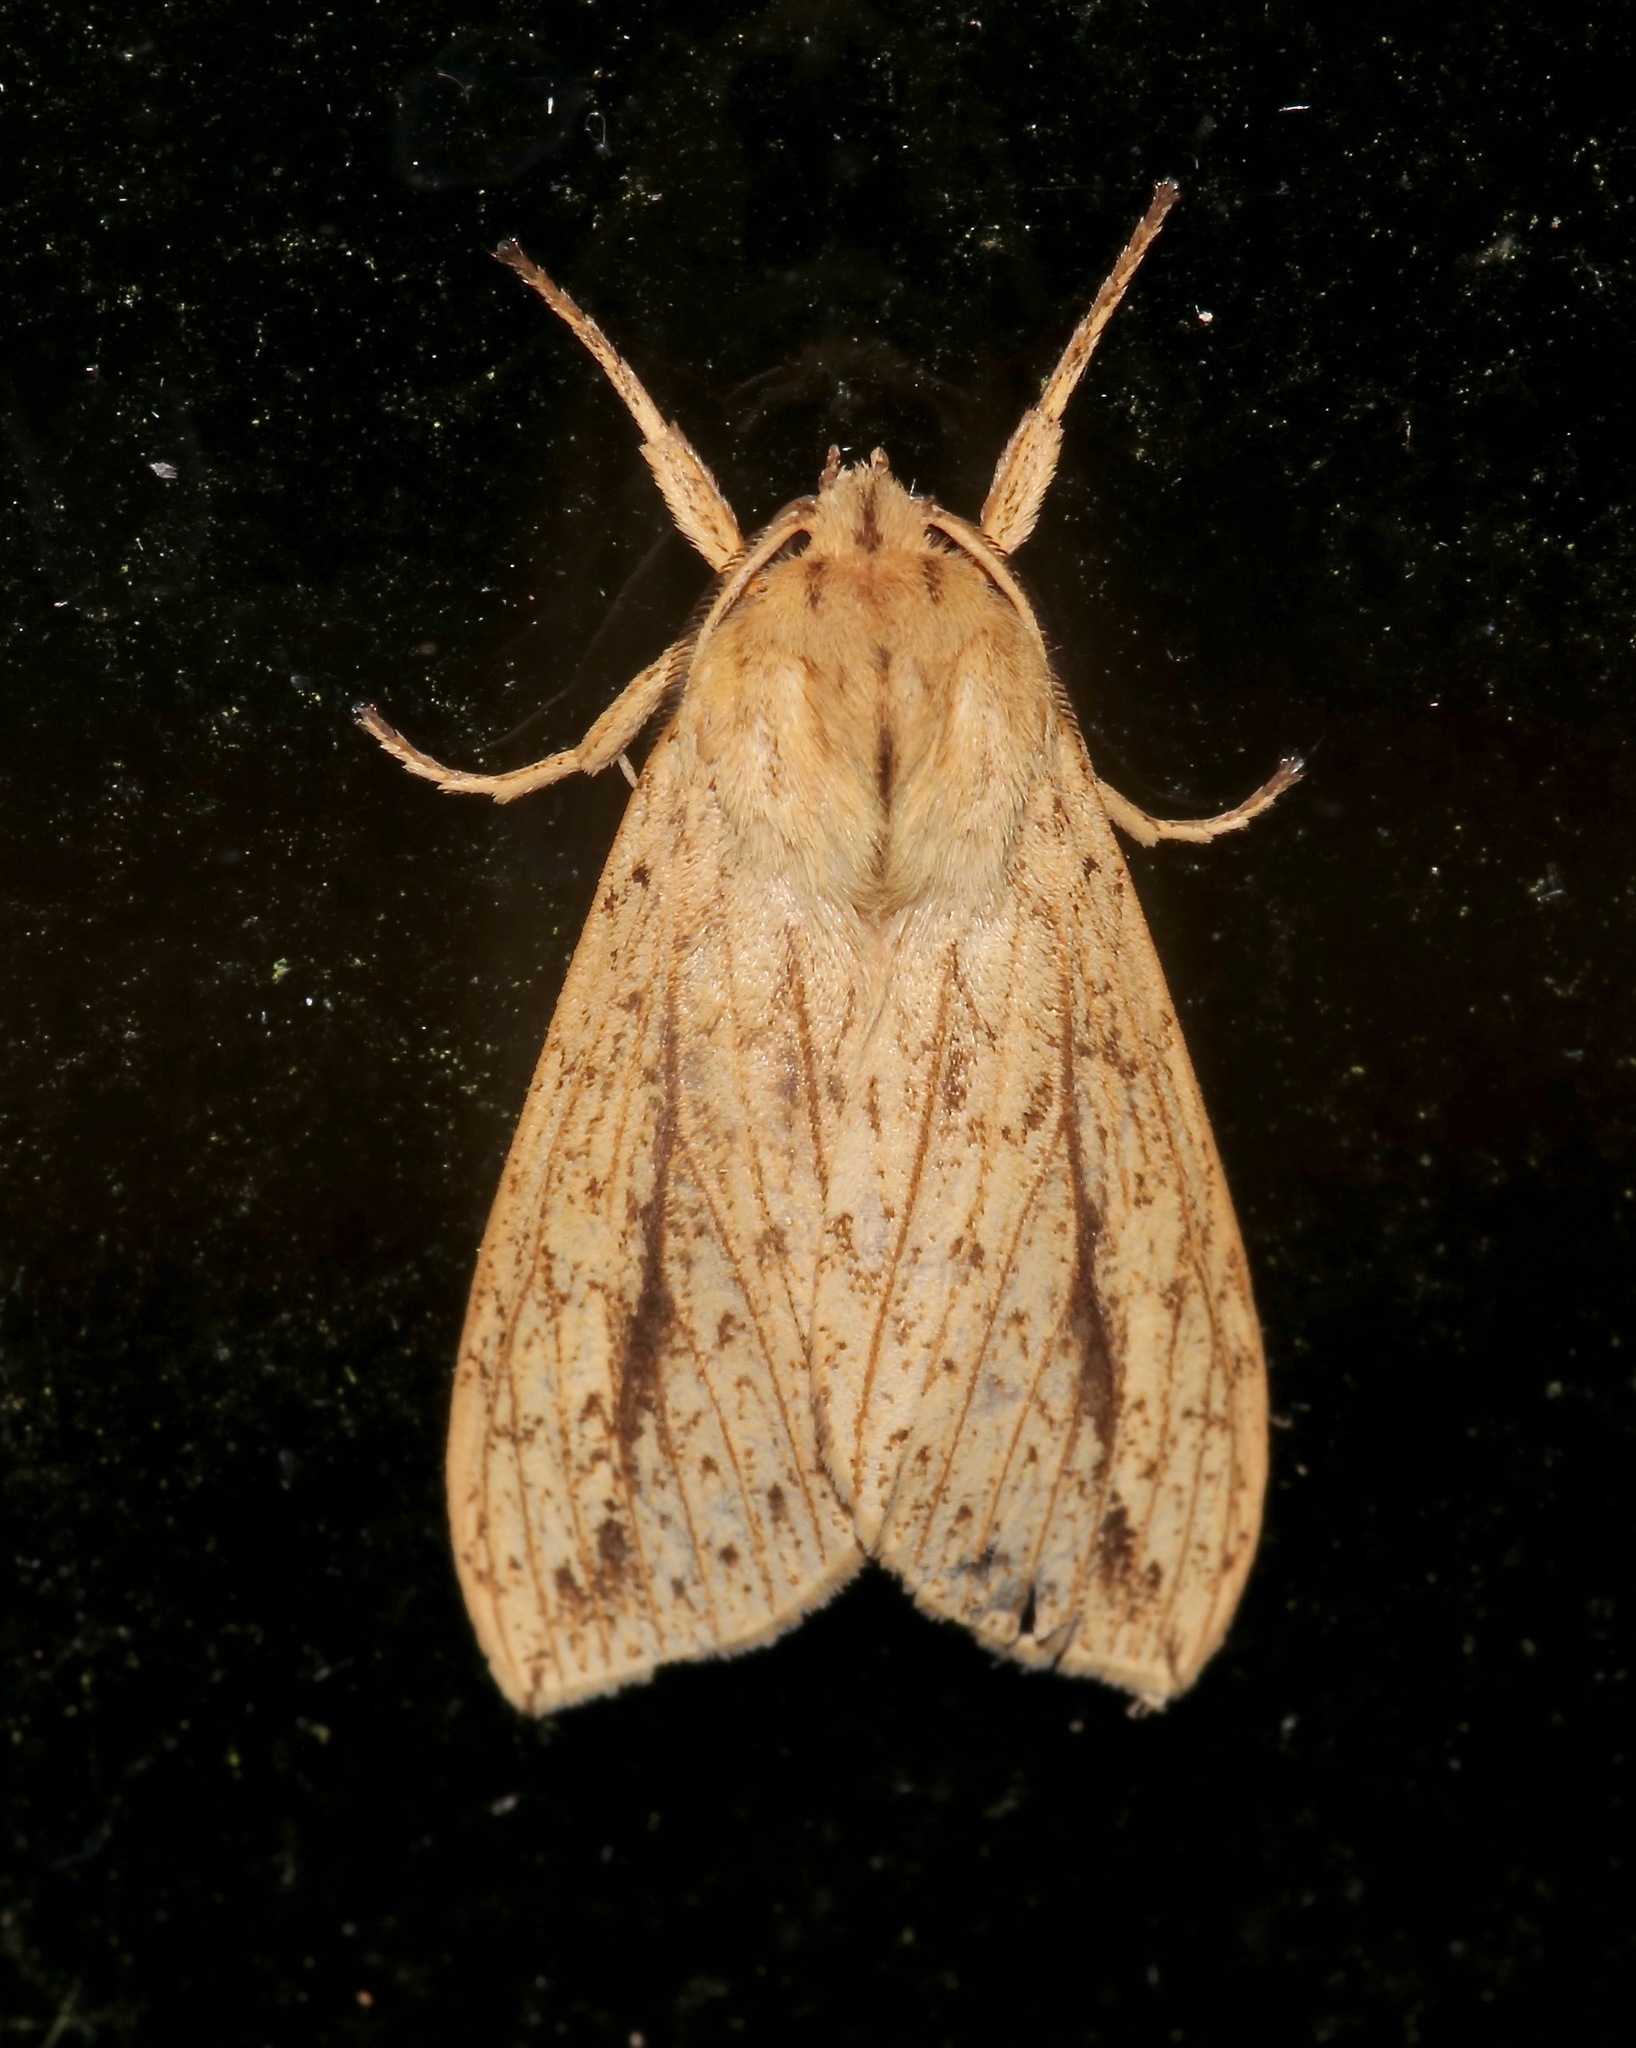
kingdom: Animalia
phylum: Arthropoda
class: Insecta
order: Lepidoptera
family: Erebidae
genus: Leucanopsis
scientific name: Leucanopsis longa
